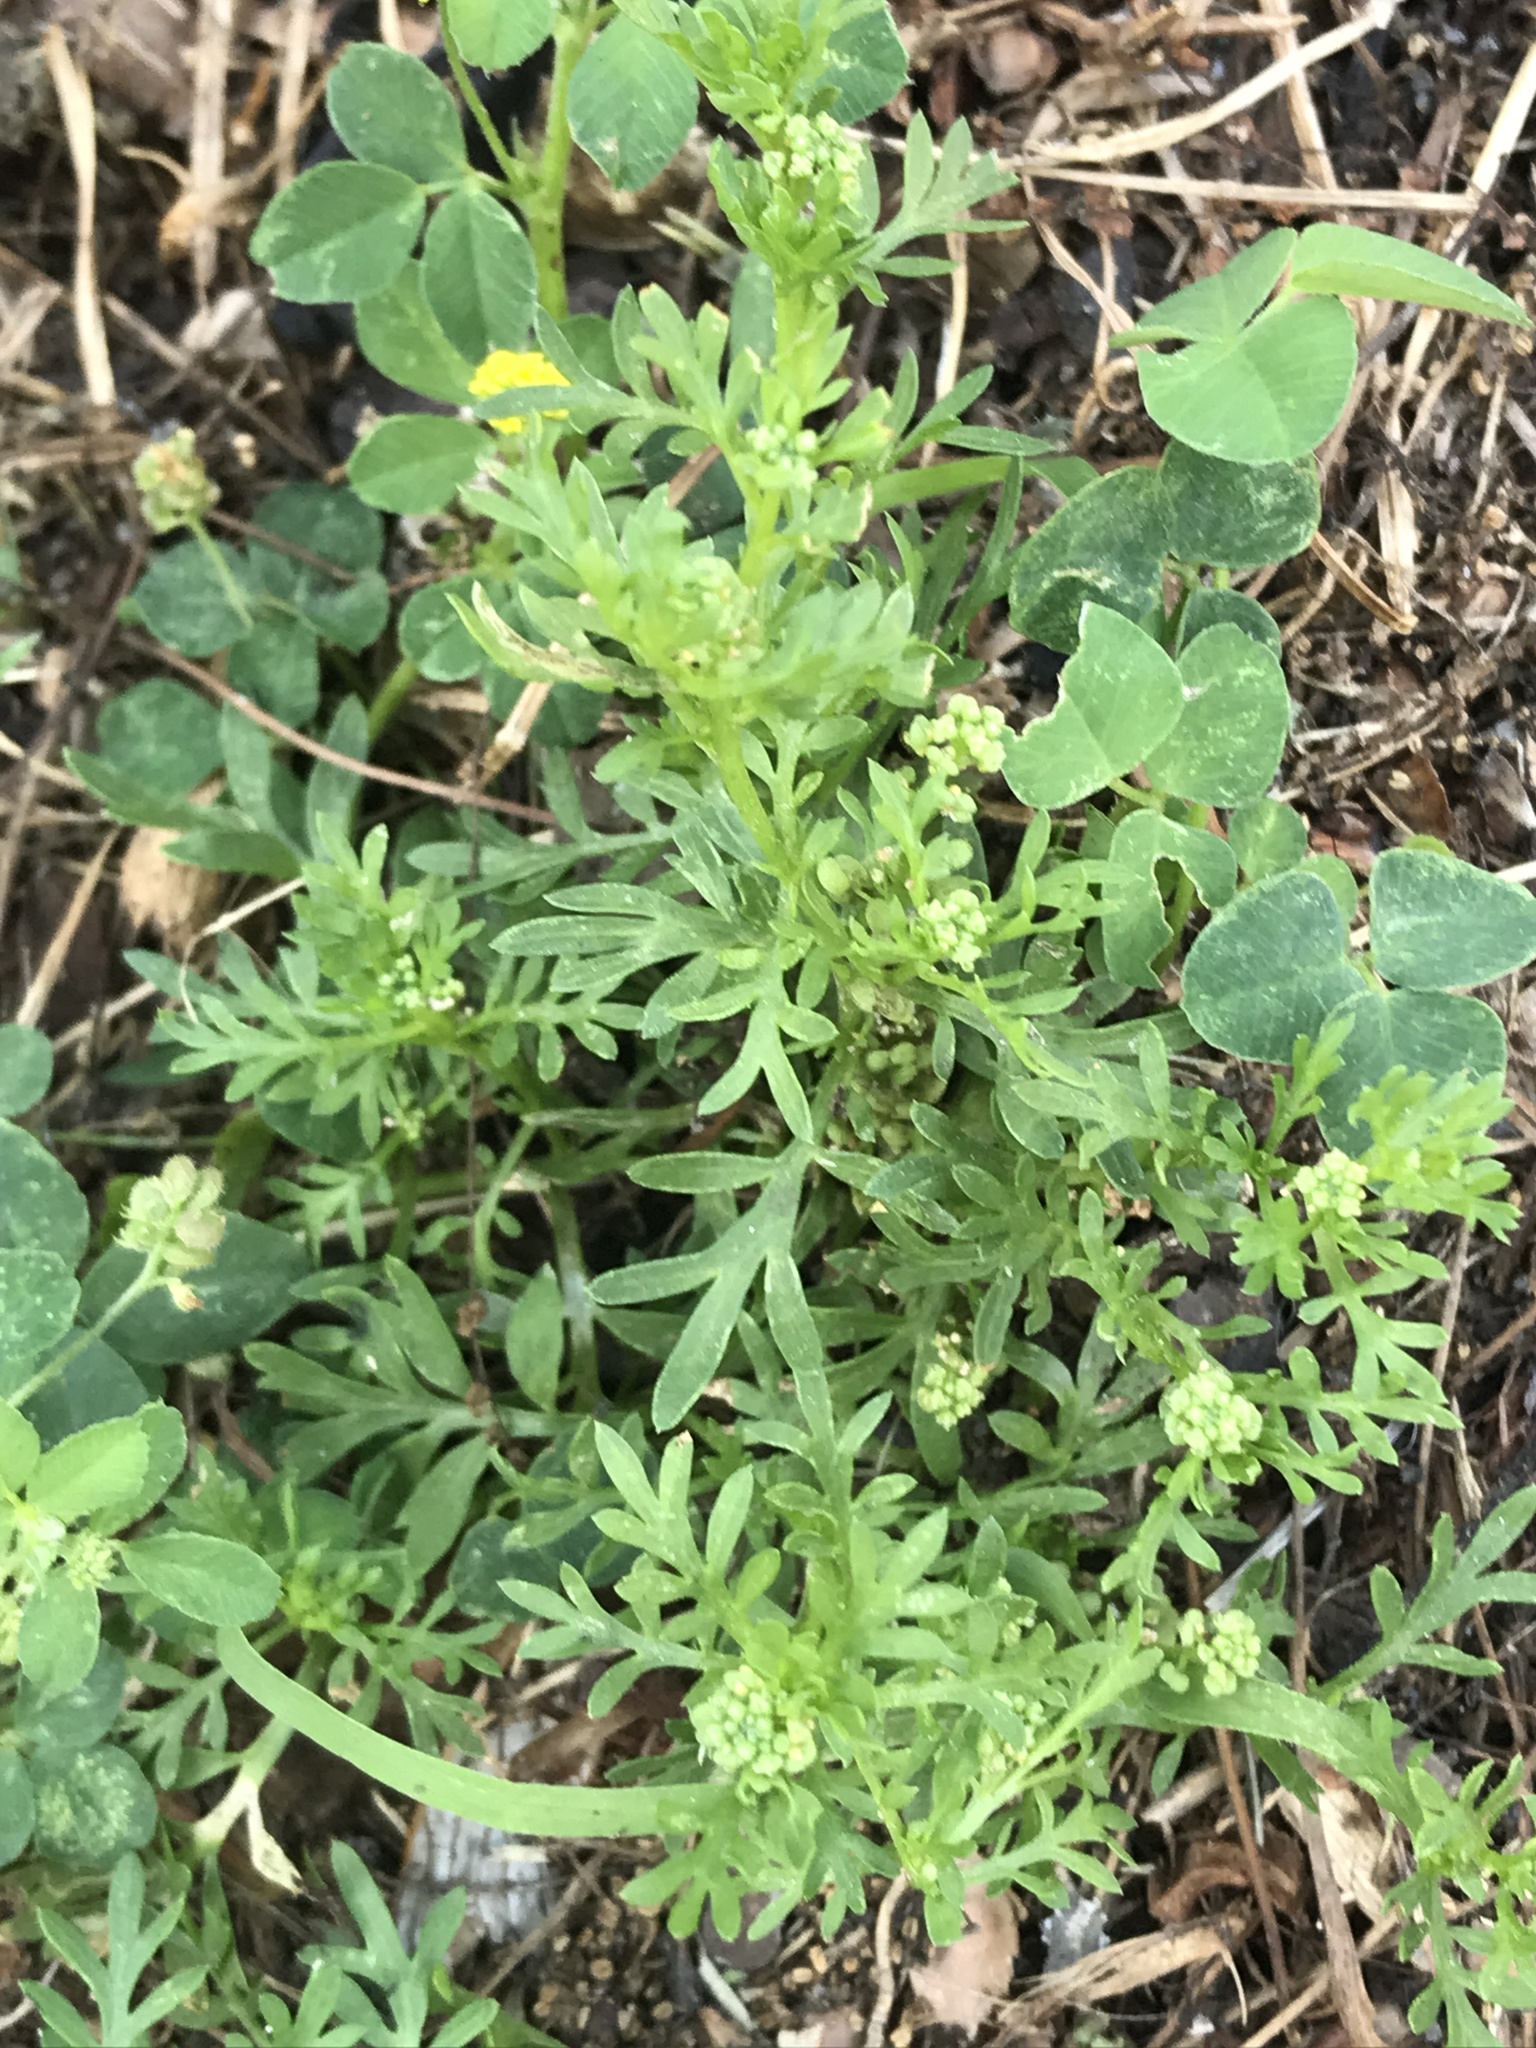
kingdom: Plantae
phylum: Tracheophyta
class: Magnoliopsida
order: Brassicales
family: Brassicaceae
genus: Lepidium
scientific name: Lepidium didymum
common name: Lesser swinecress
